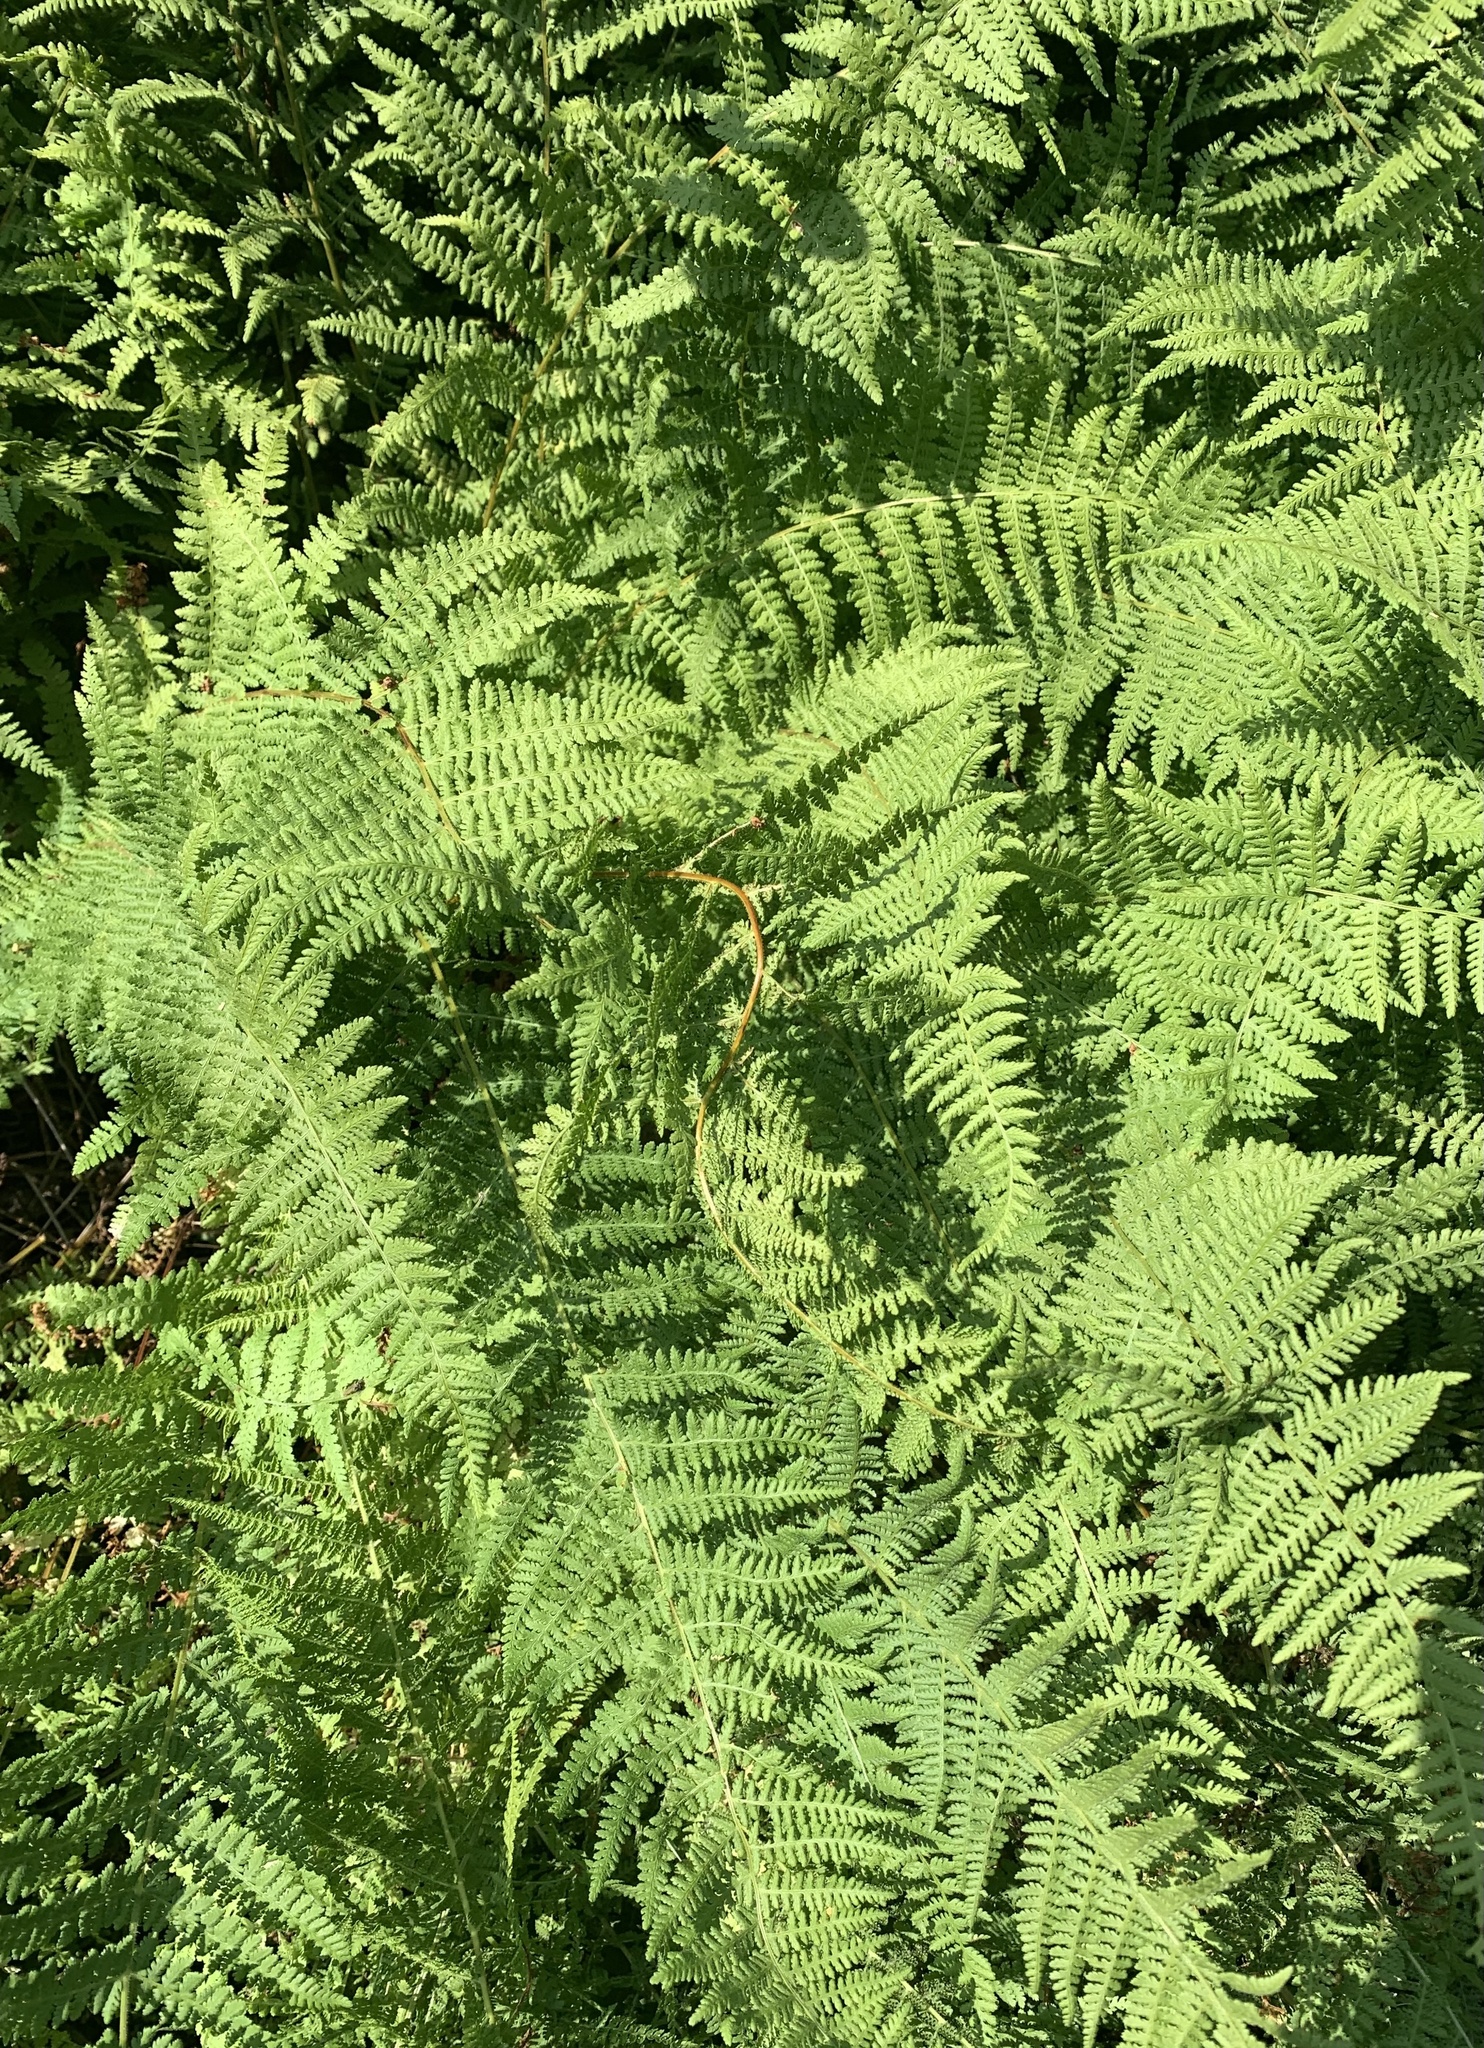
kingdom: Plantae
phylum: Tracheophyta
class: Polypodiopsida
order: Polypodiales
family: Dennstaedtiaceae
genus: Sitobolium
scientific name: Sitobolium punctilobum
